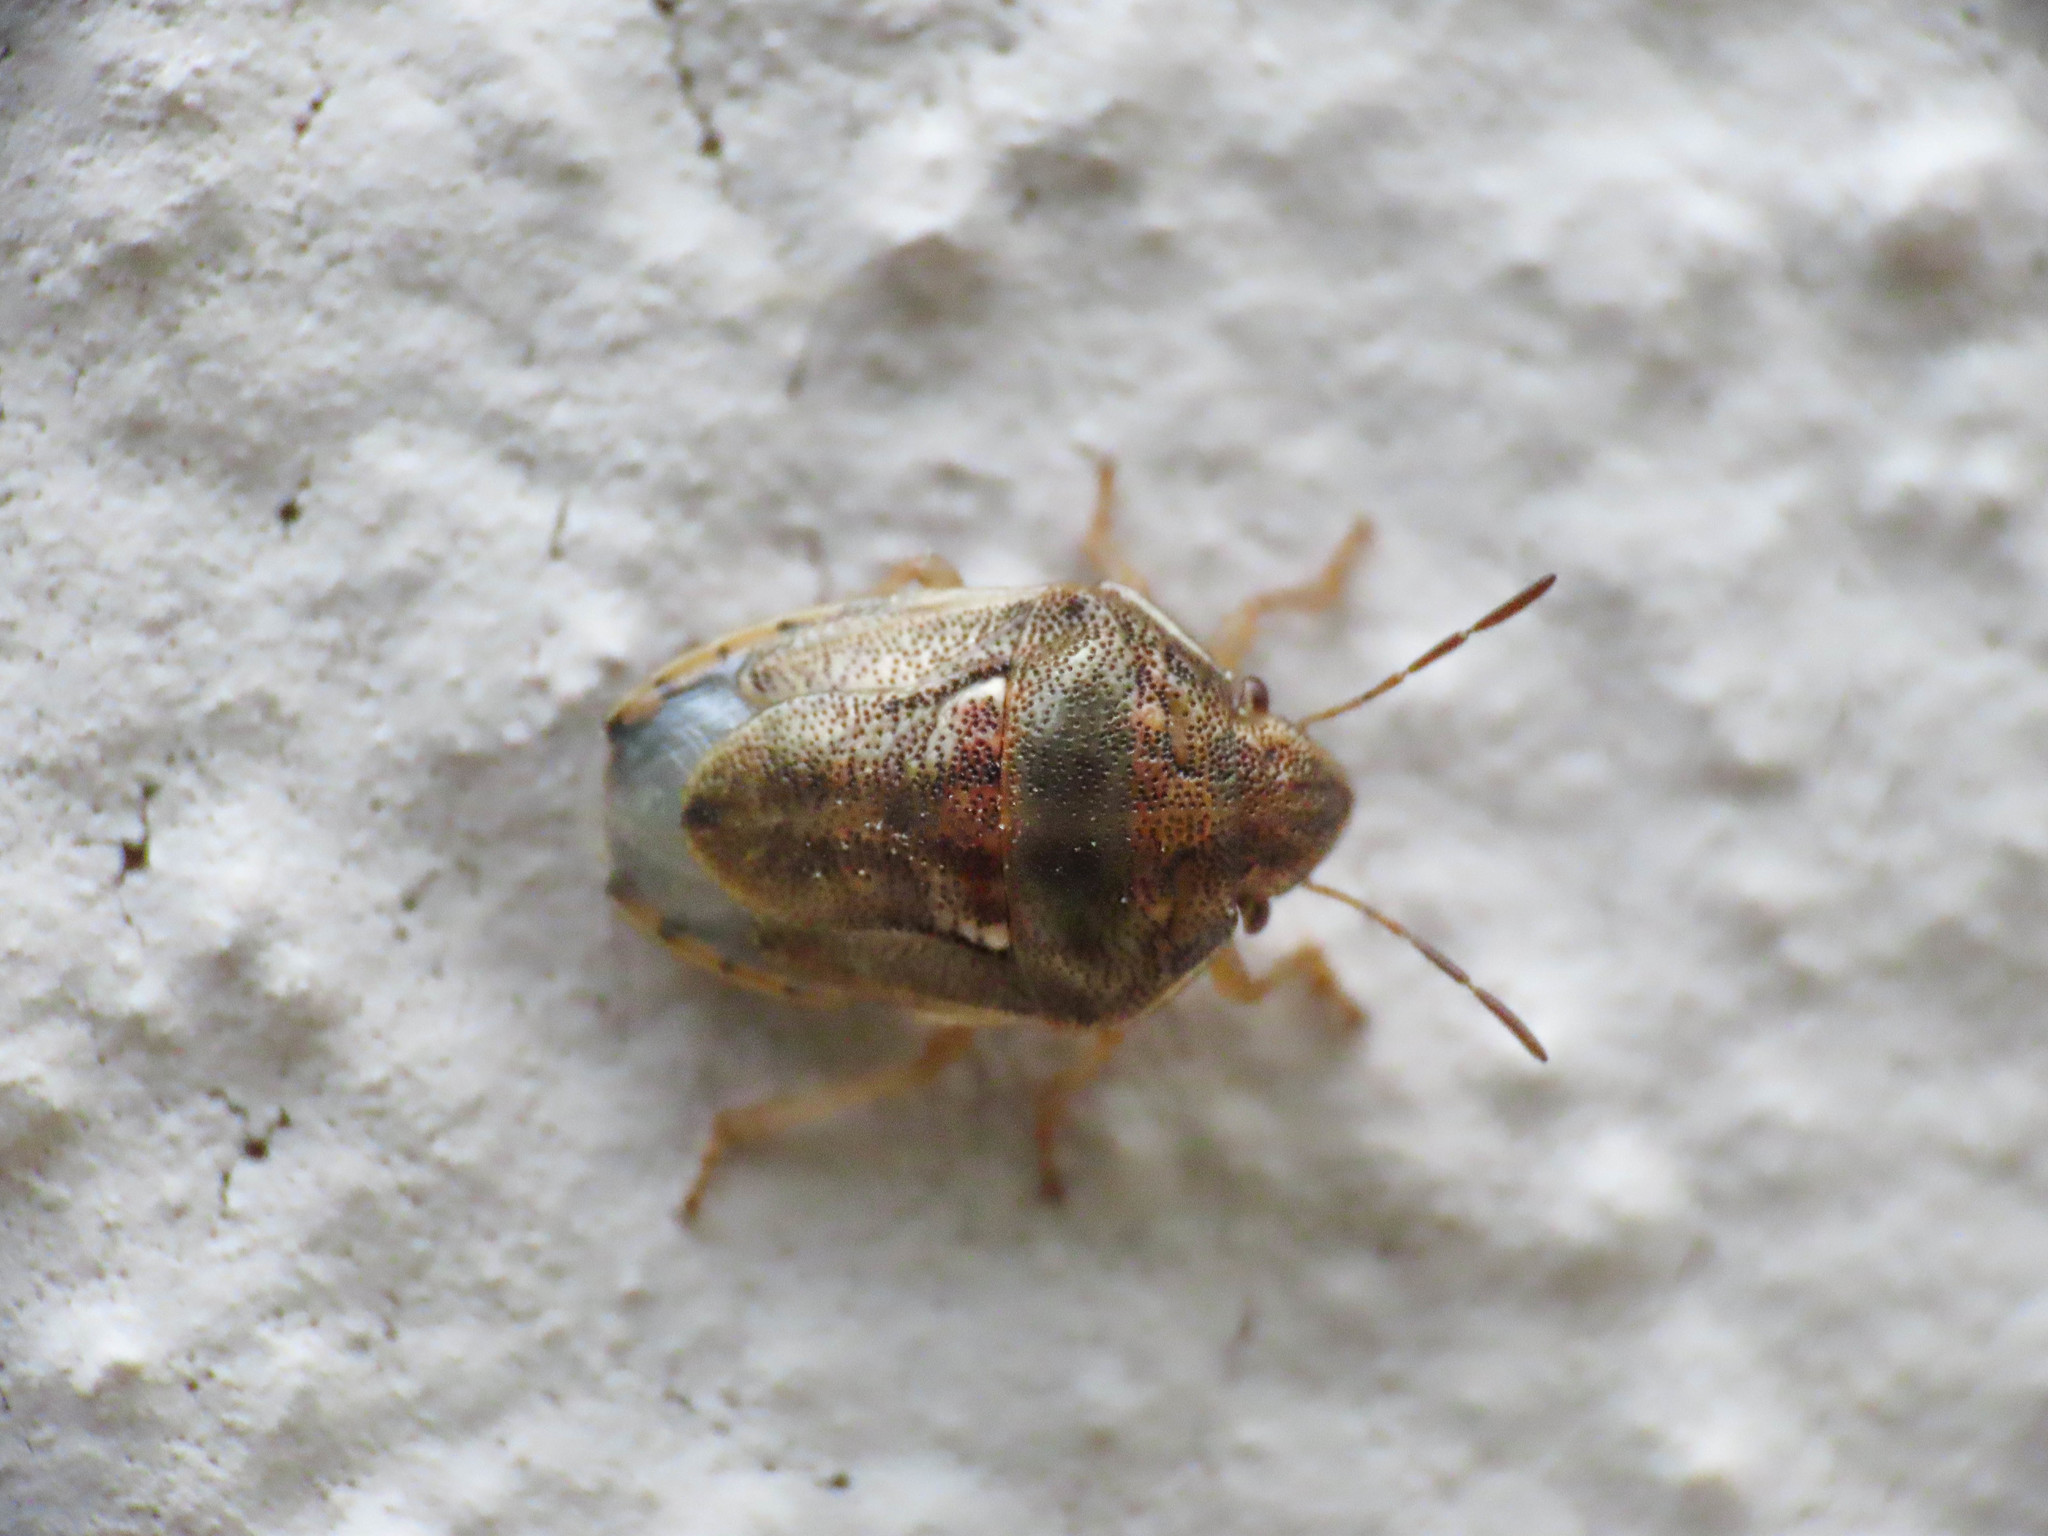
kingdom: Animalia
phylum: Arthropoda
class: Insecta
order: Hemiptera
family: Pentatomidae
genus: Neottiglossa
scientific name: Neottiglossa bifida
